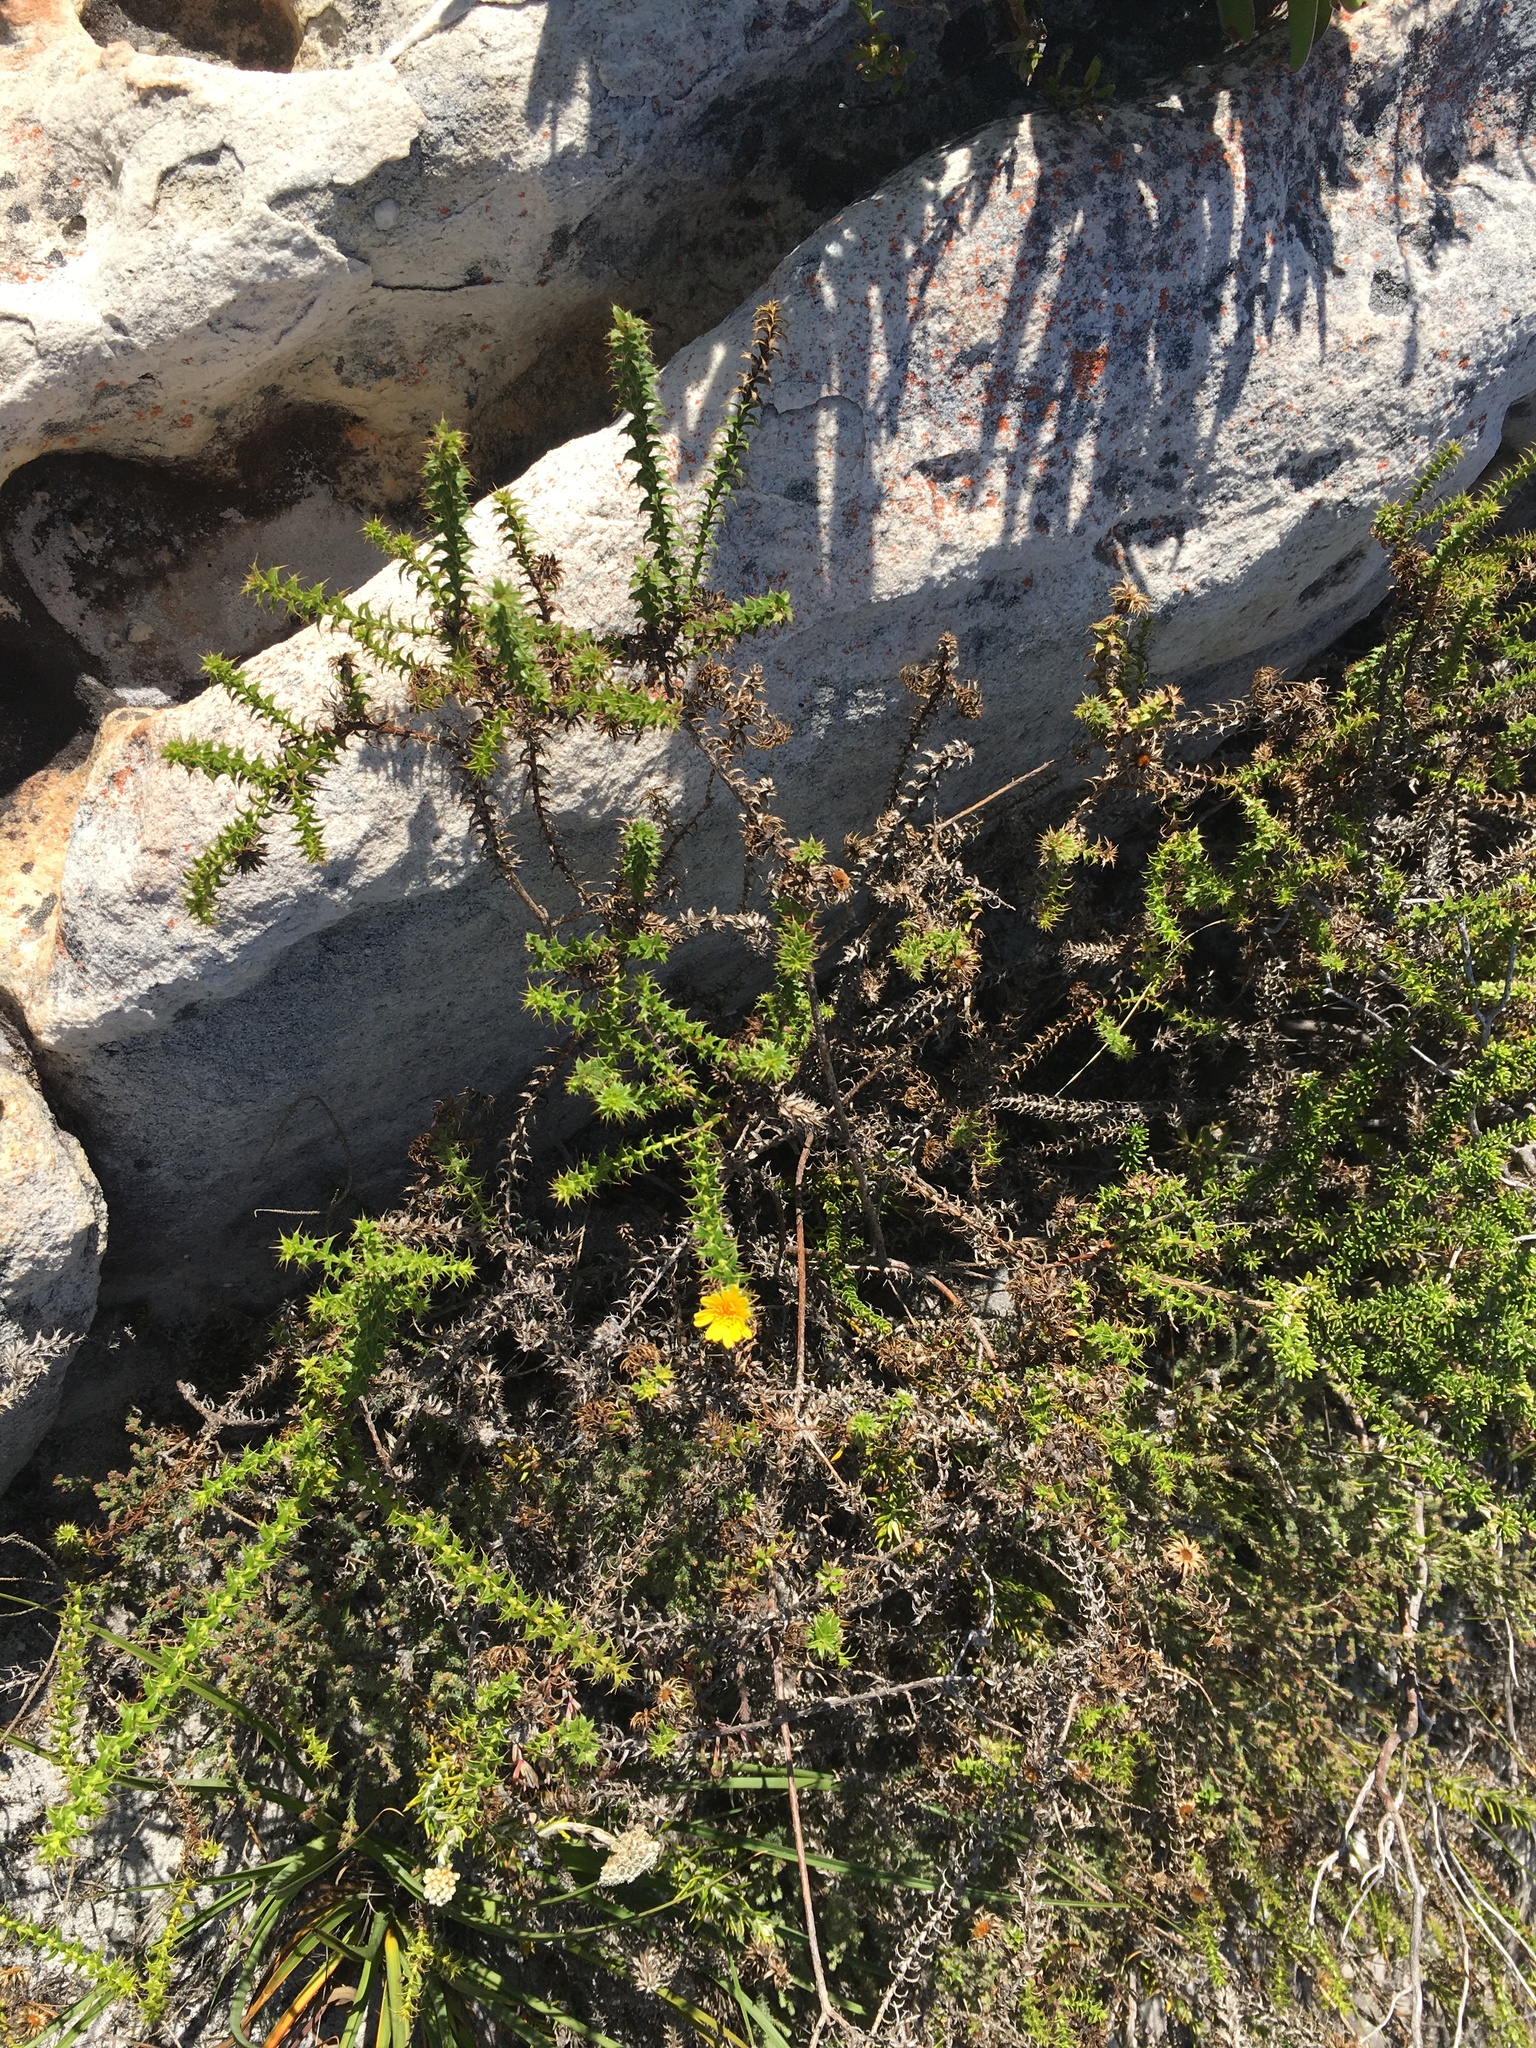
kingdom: Plantae
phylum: Tracheophyta
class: Magnoliopsida
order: Asterales
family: Asteraceae
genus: Cullumia
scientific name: Cullumia setosa
